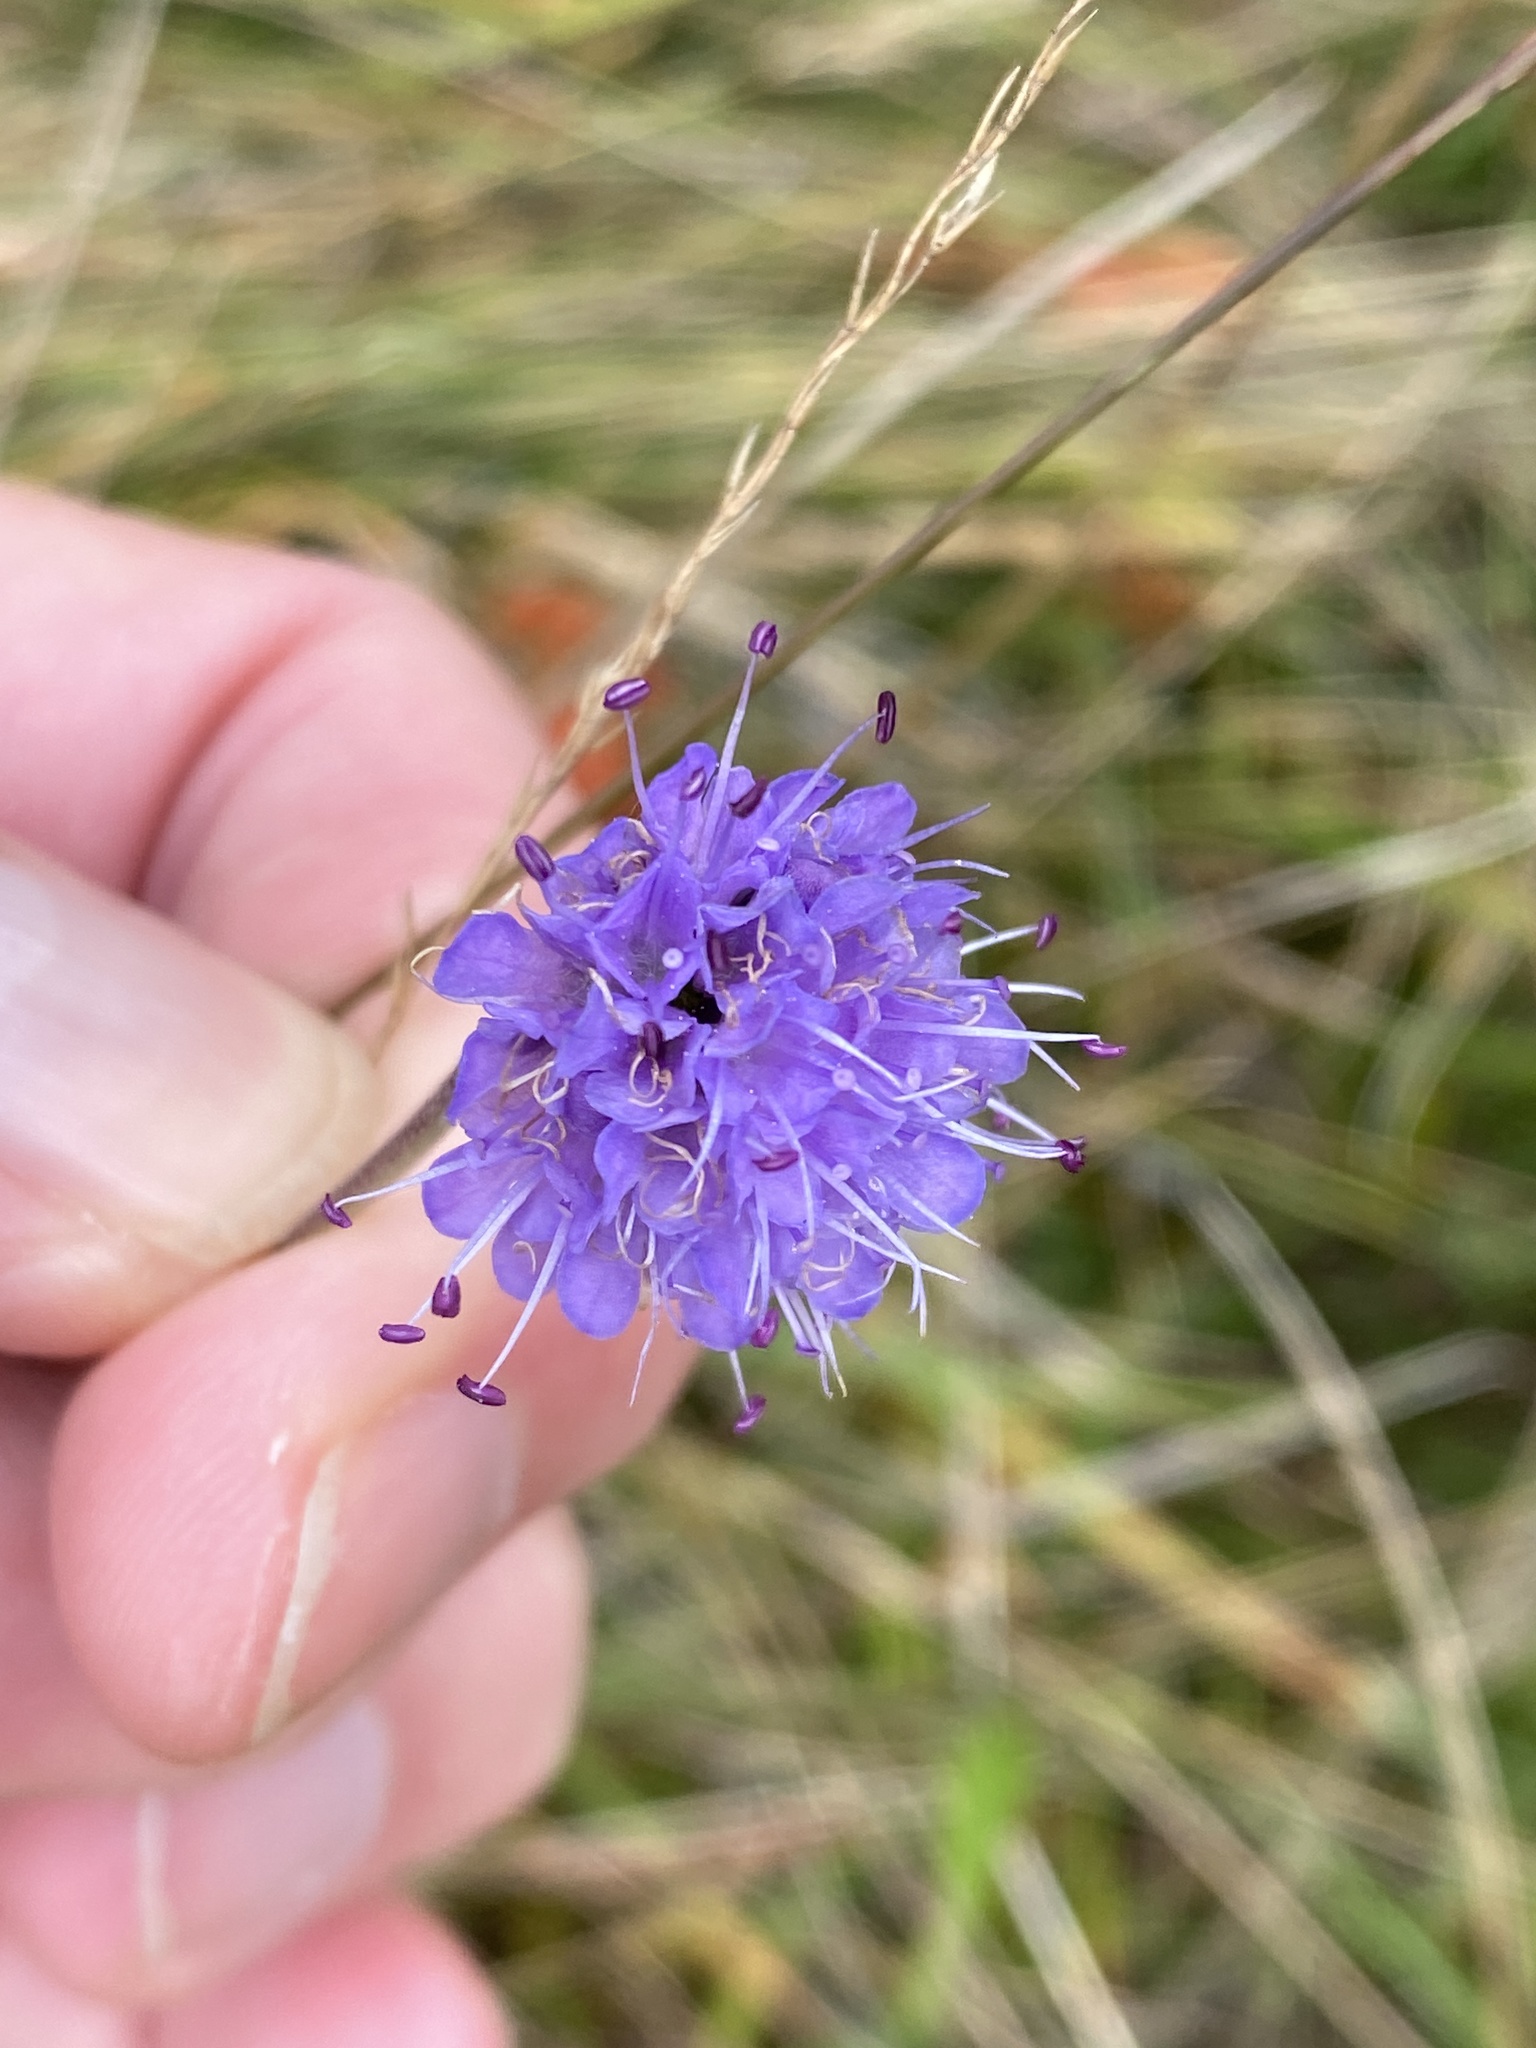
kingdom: Plantae
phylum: Tracheophyta
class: Magnoliopsida
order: Dipsacales
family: Caprifoliaceae
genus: Succisa
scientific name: Succisa pratensis
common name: Devil's-bit
